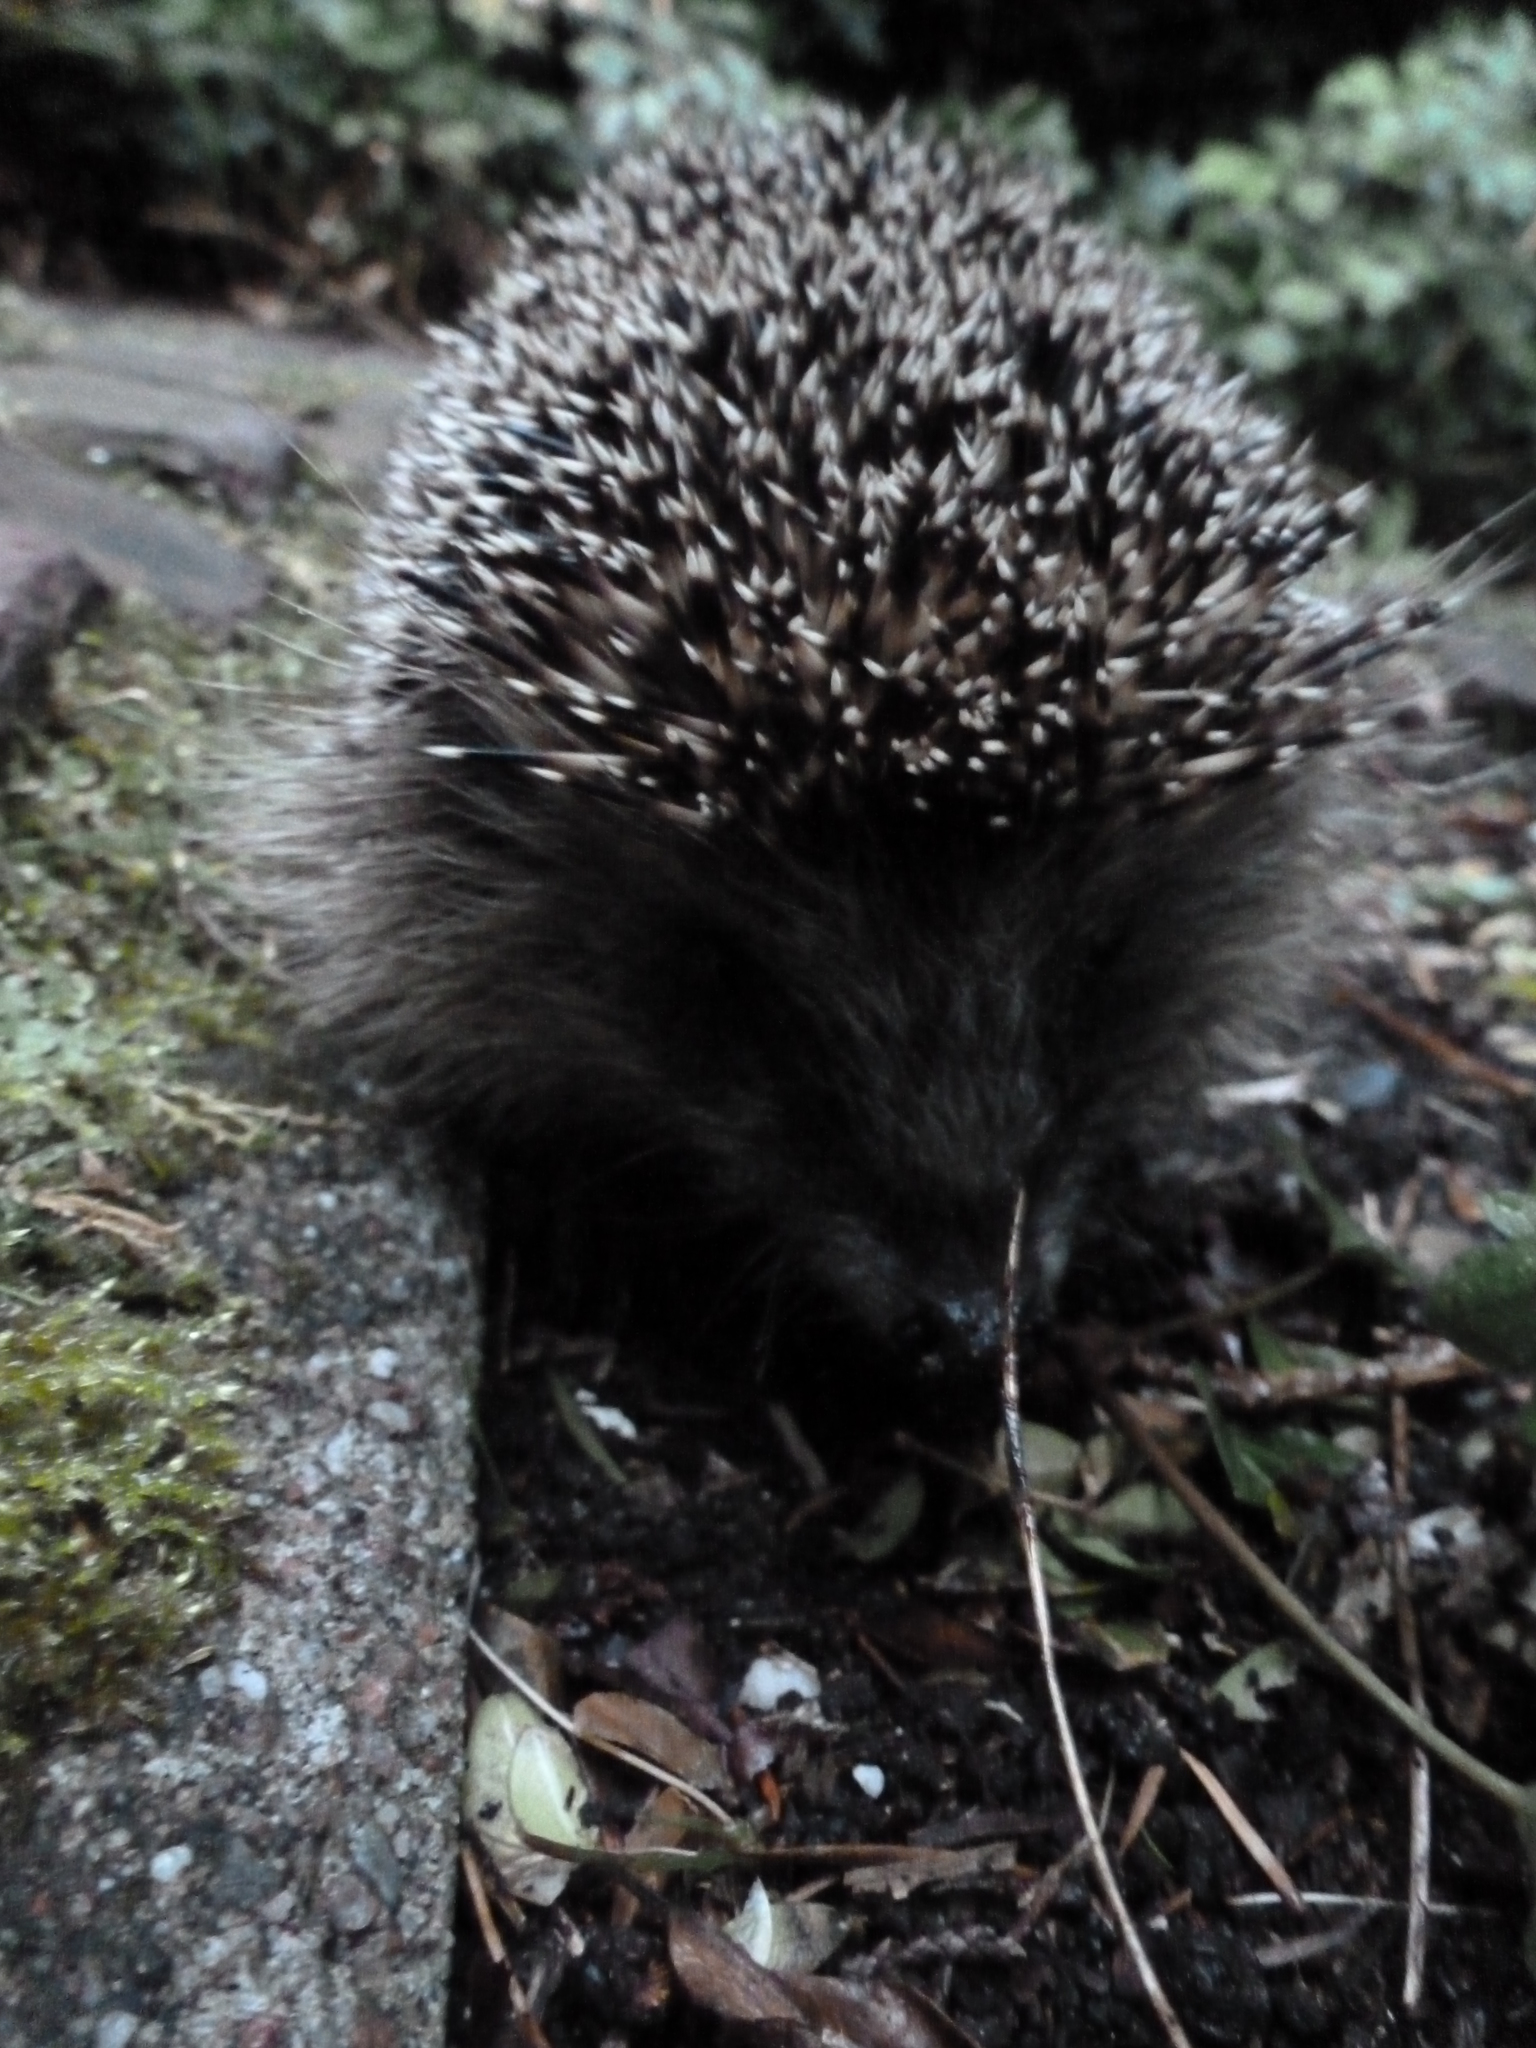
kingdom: Animalia
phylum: Chordata
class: Mammalia
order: Erinaceomorpha
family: Erinaceidae
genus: Erinaceus
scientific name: Erinaceus europaeus
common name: West european hedgehog
